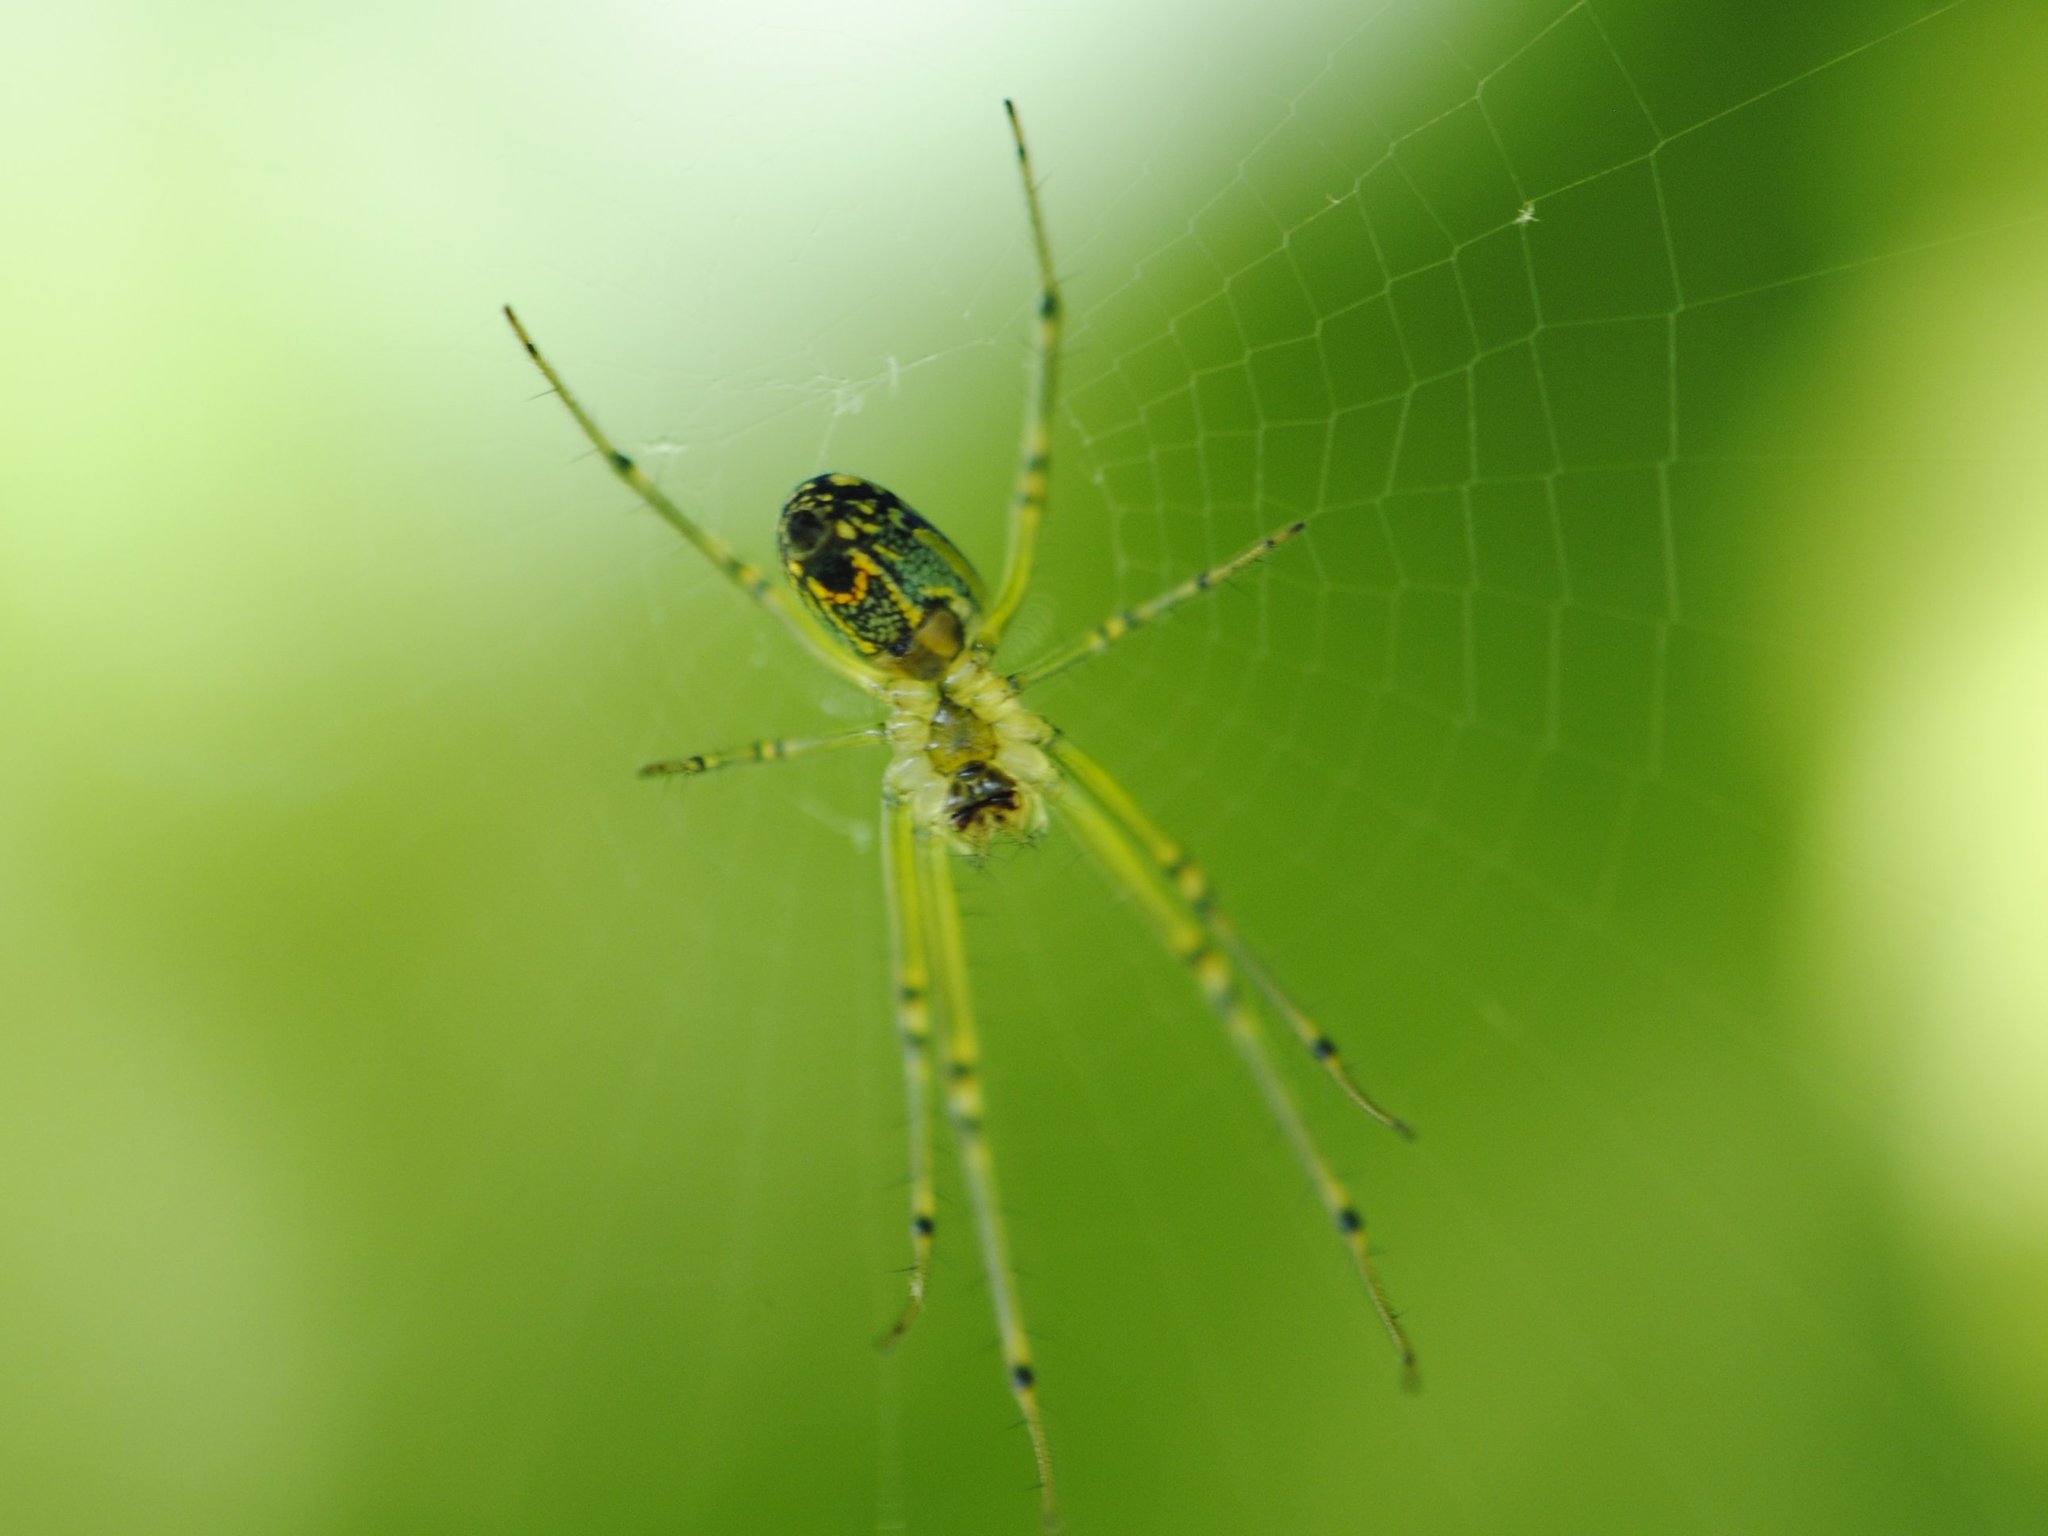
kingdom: Animalia
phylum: Arthropoda
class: Arachnida
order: Araneae
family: Tetragnathidae
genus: Leucauge
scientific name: Leucauge venusta
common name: Longjawed orb weavers
